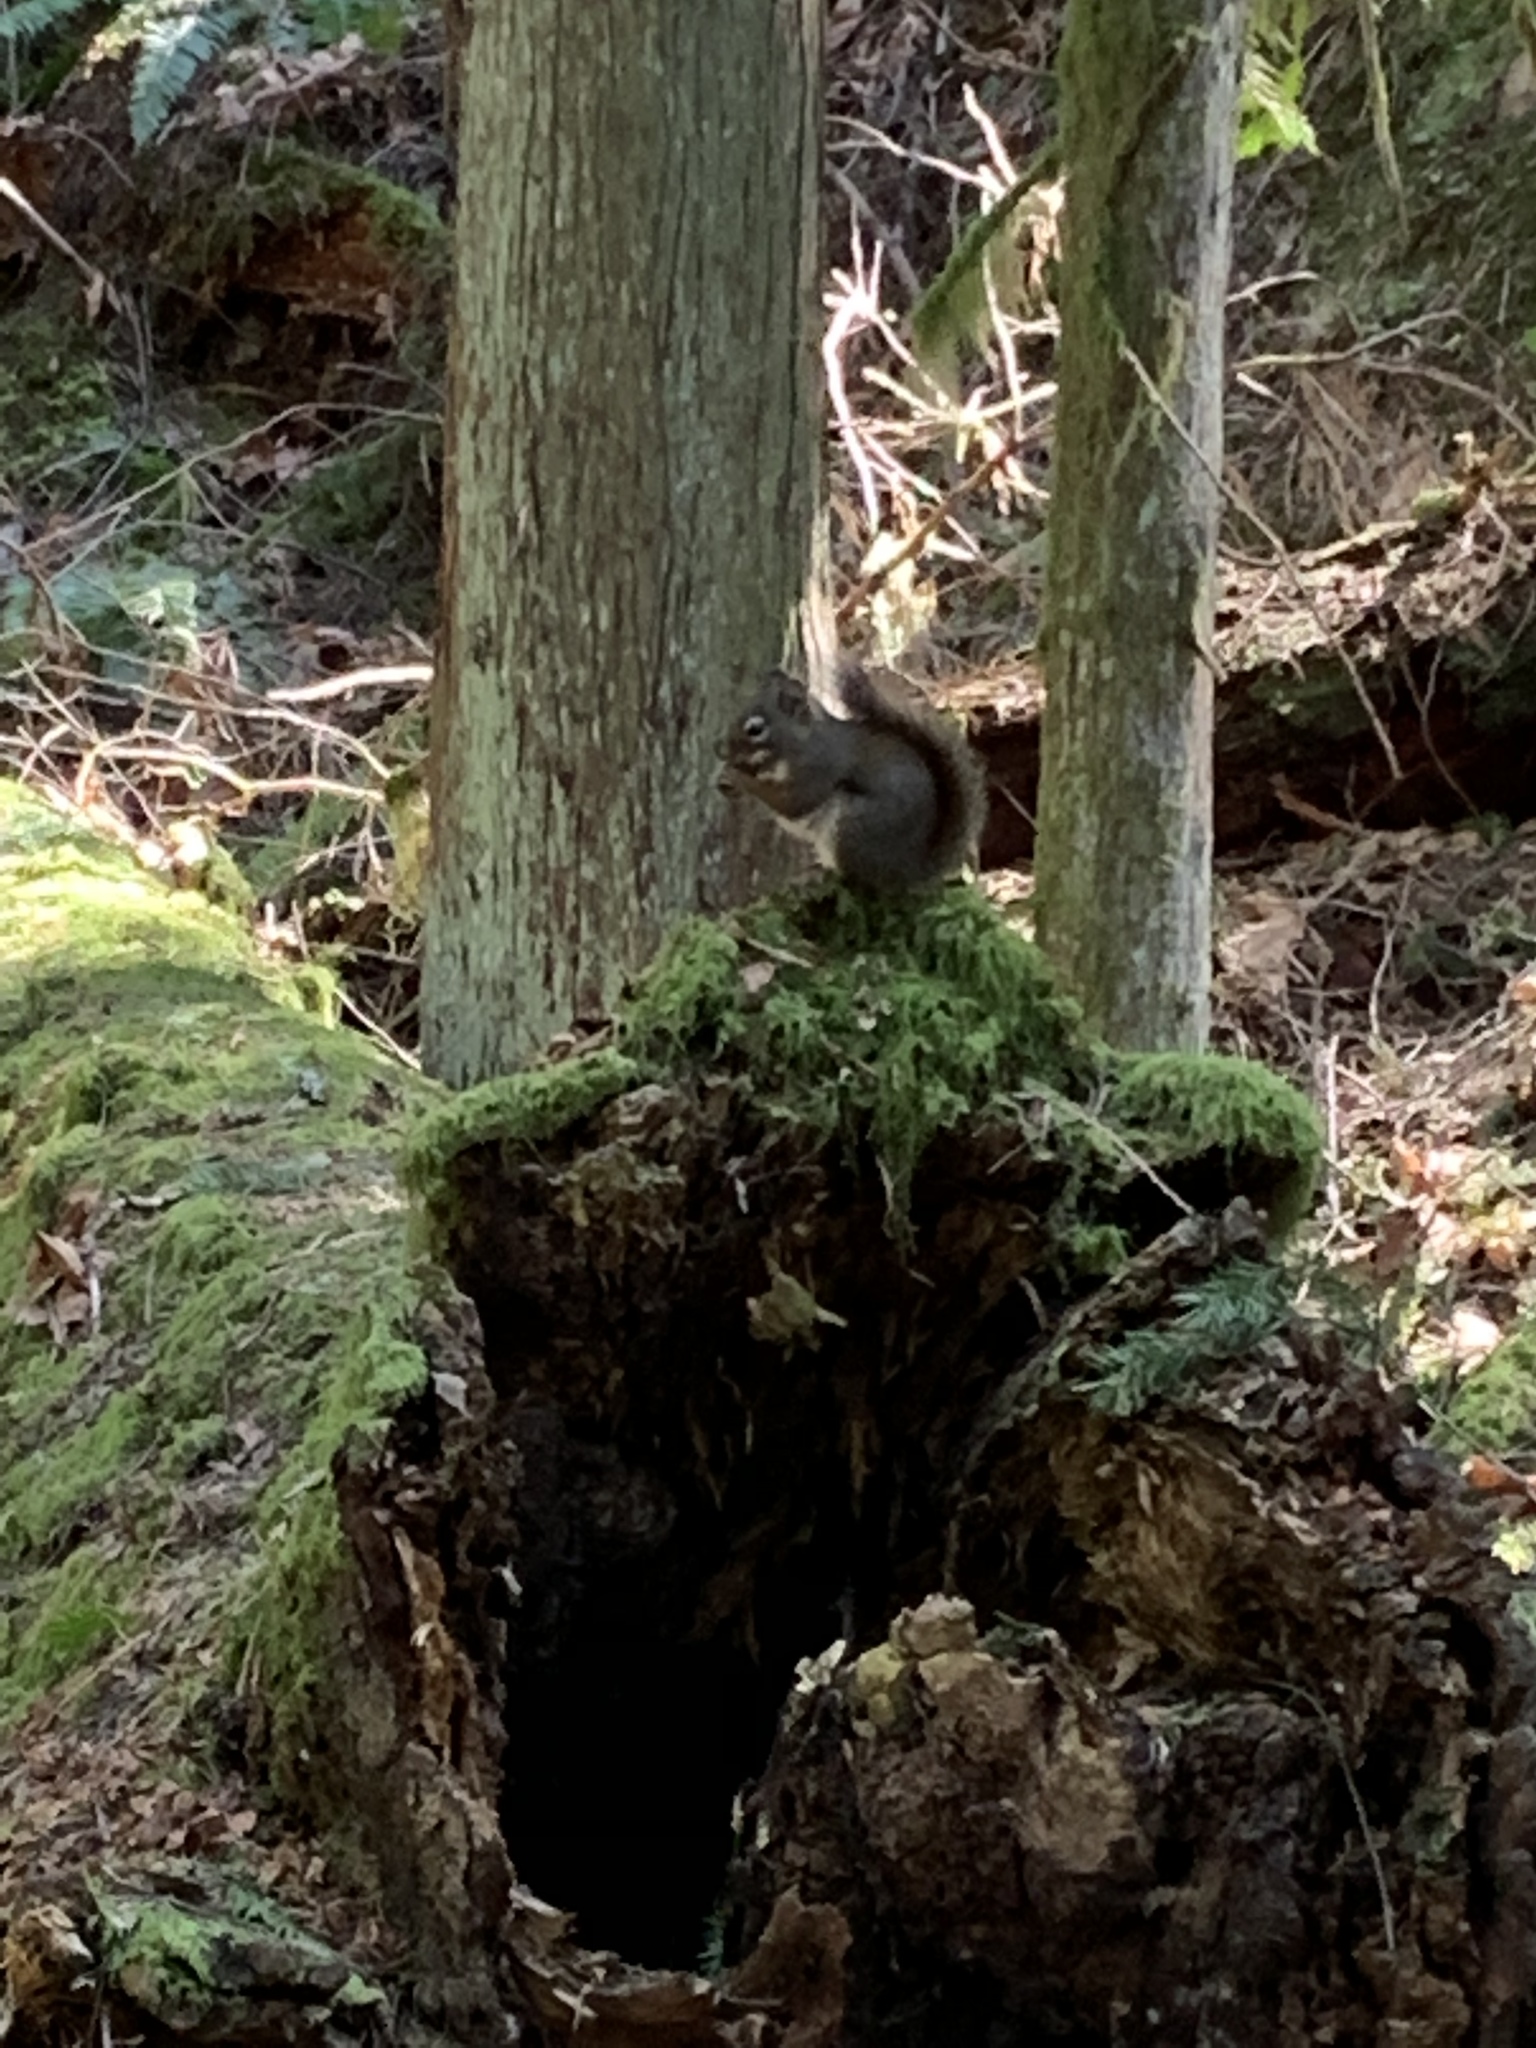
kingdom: Animalia
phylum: Chordata
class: Mammalia
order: Rodentia
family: Sciuridae
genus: Tamiasciurus
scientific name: Tamiasciurus hudsonicus
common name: Red squirrel
